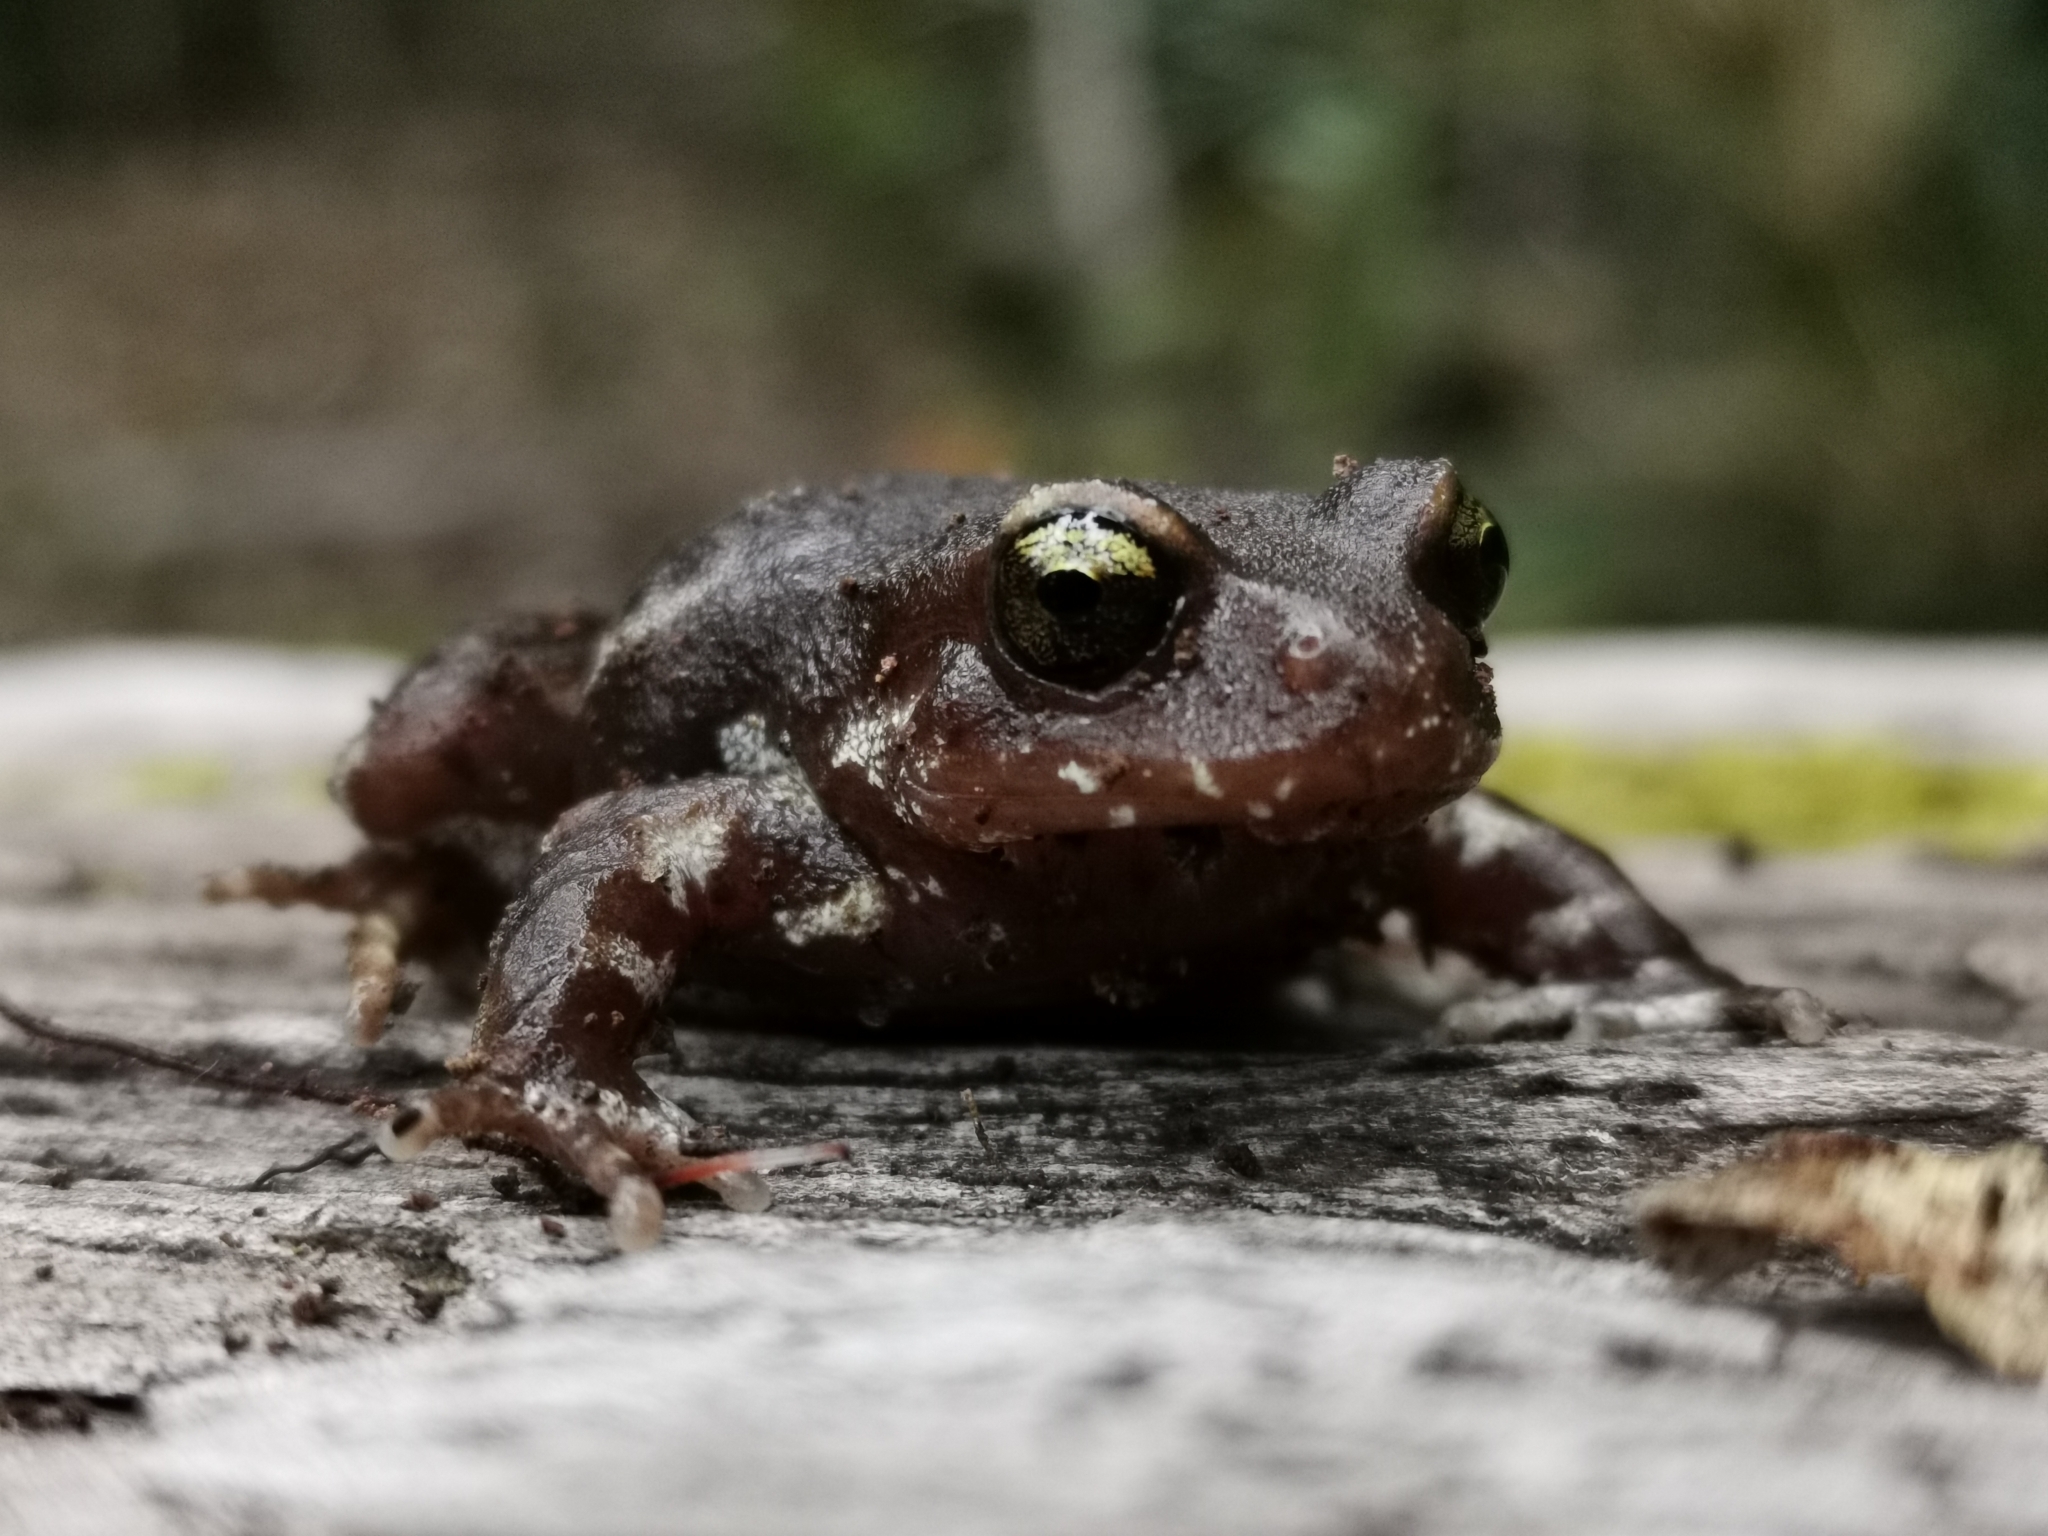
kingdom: Animalia
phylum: Chordata
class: Amphibia
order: Anura
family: Alsodidae
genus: Eupsophus
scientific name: Eupsophus migueli
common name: Miguel's ground frog
